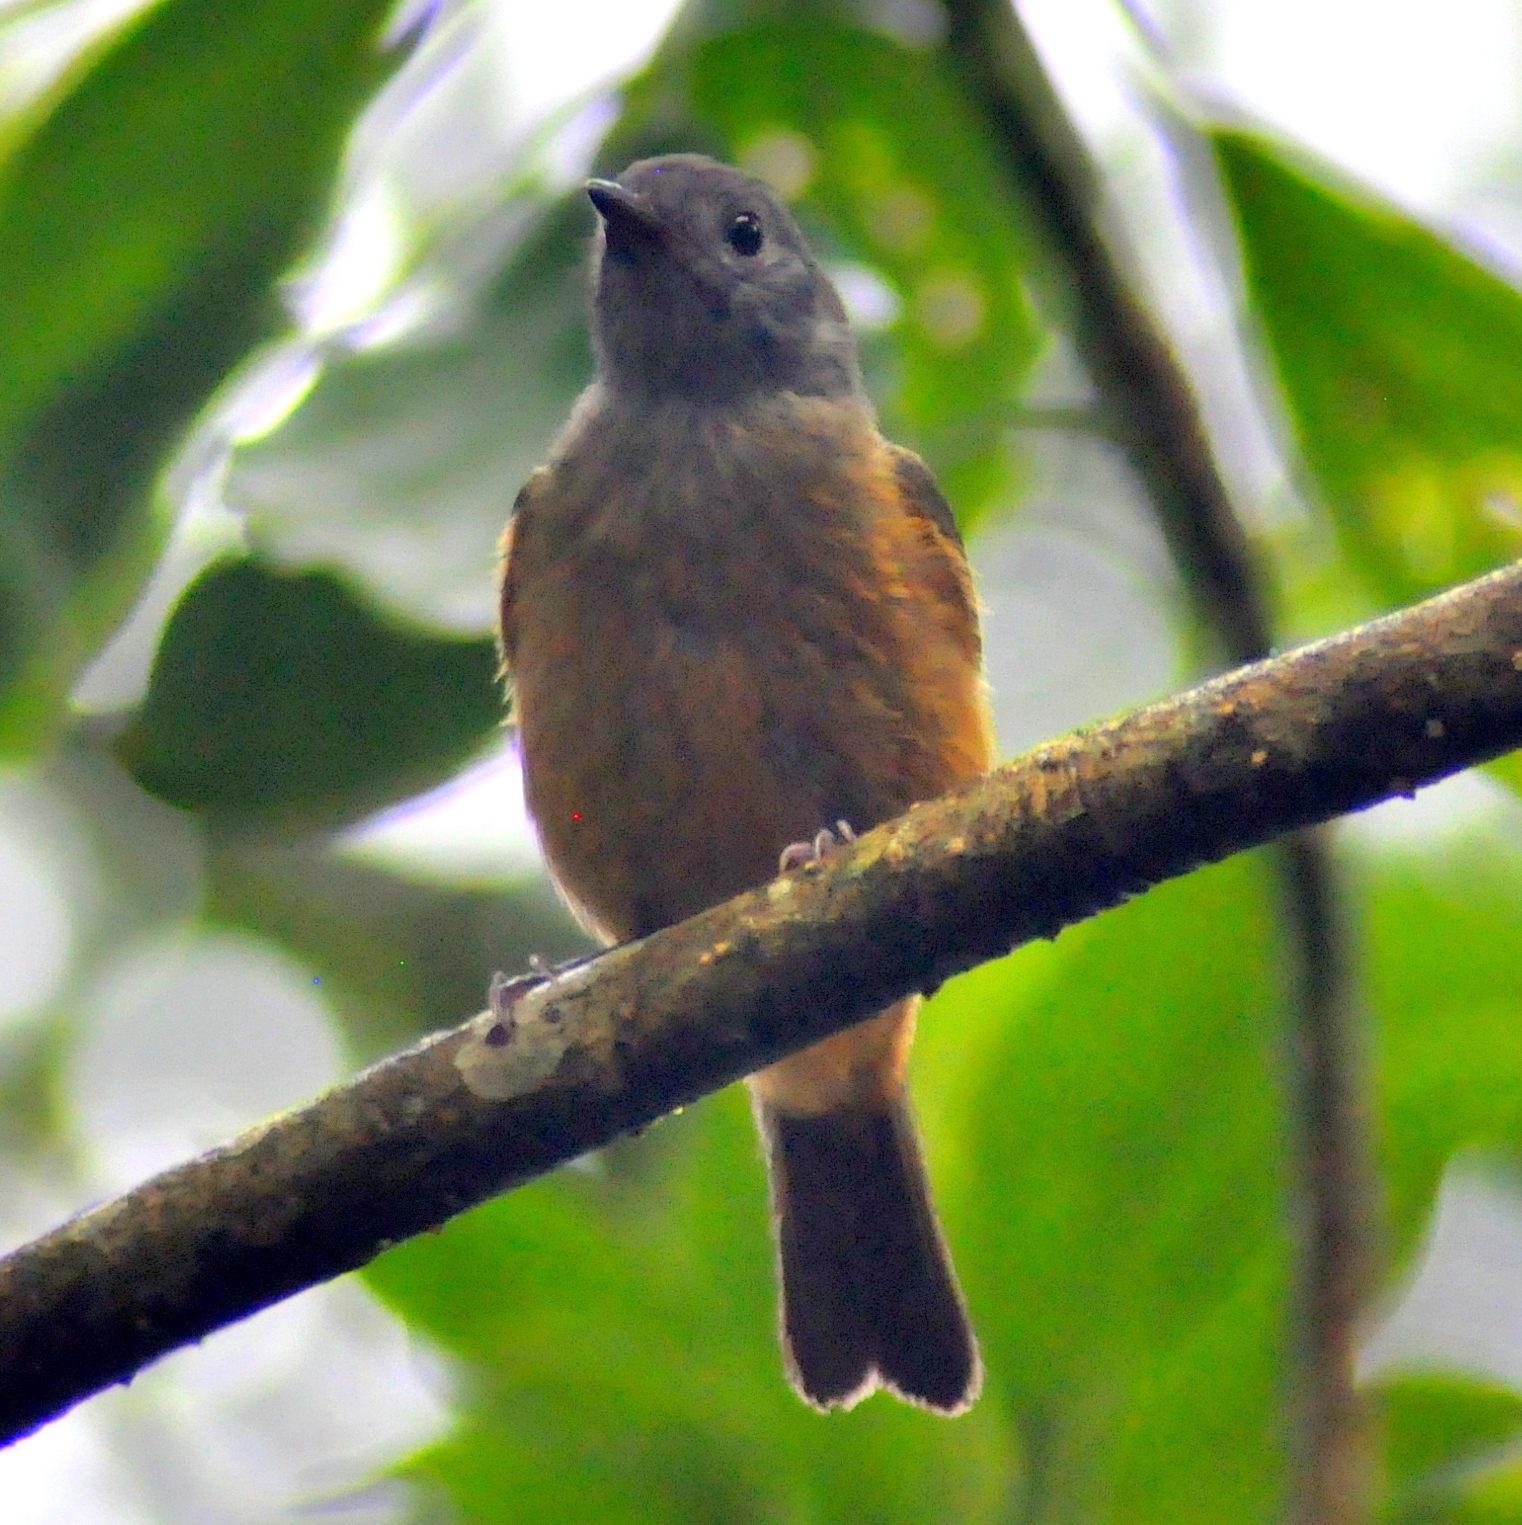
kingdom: Animalia
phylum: Chordata
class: Aves
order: Passeriformes
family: Tyrannidae
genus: Mionectes
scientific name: Mionectes rufiventris
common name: Grey-hooded flycatcher
